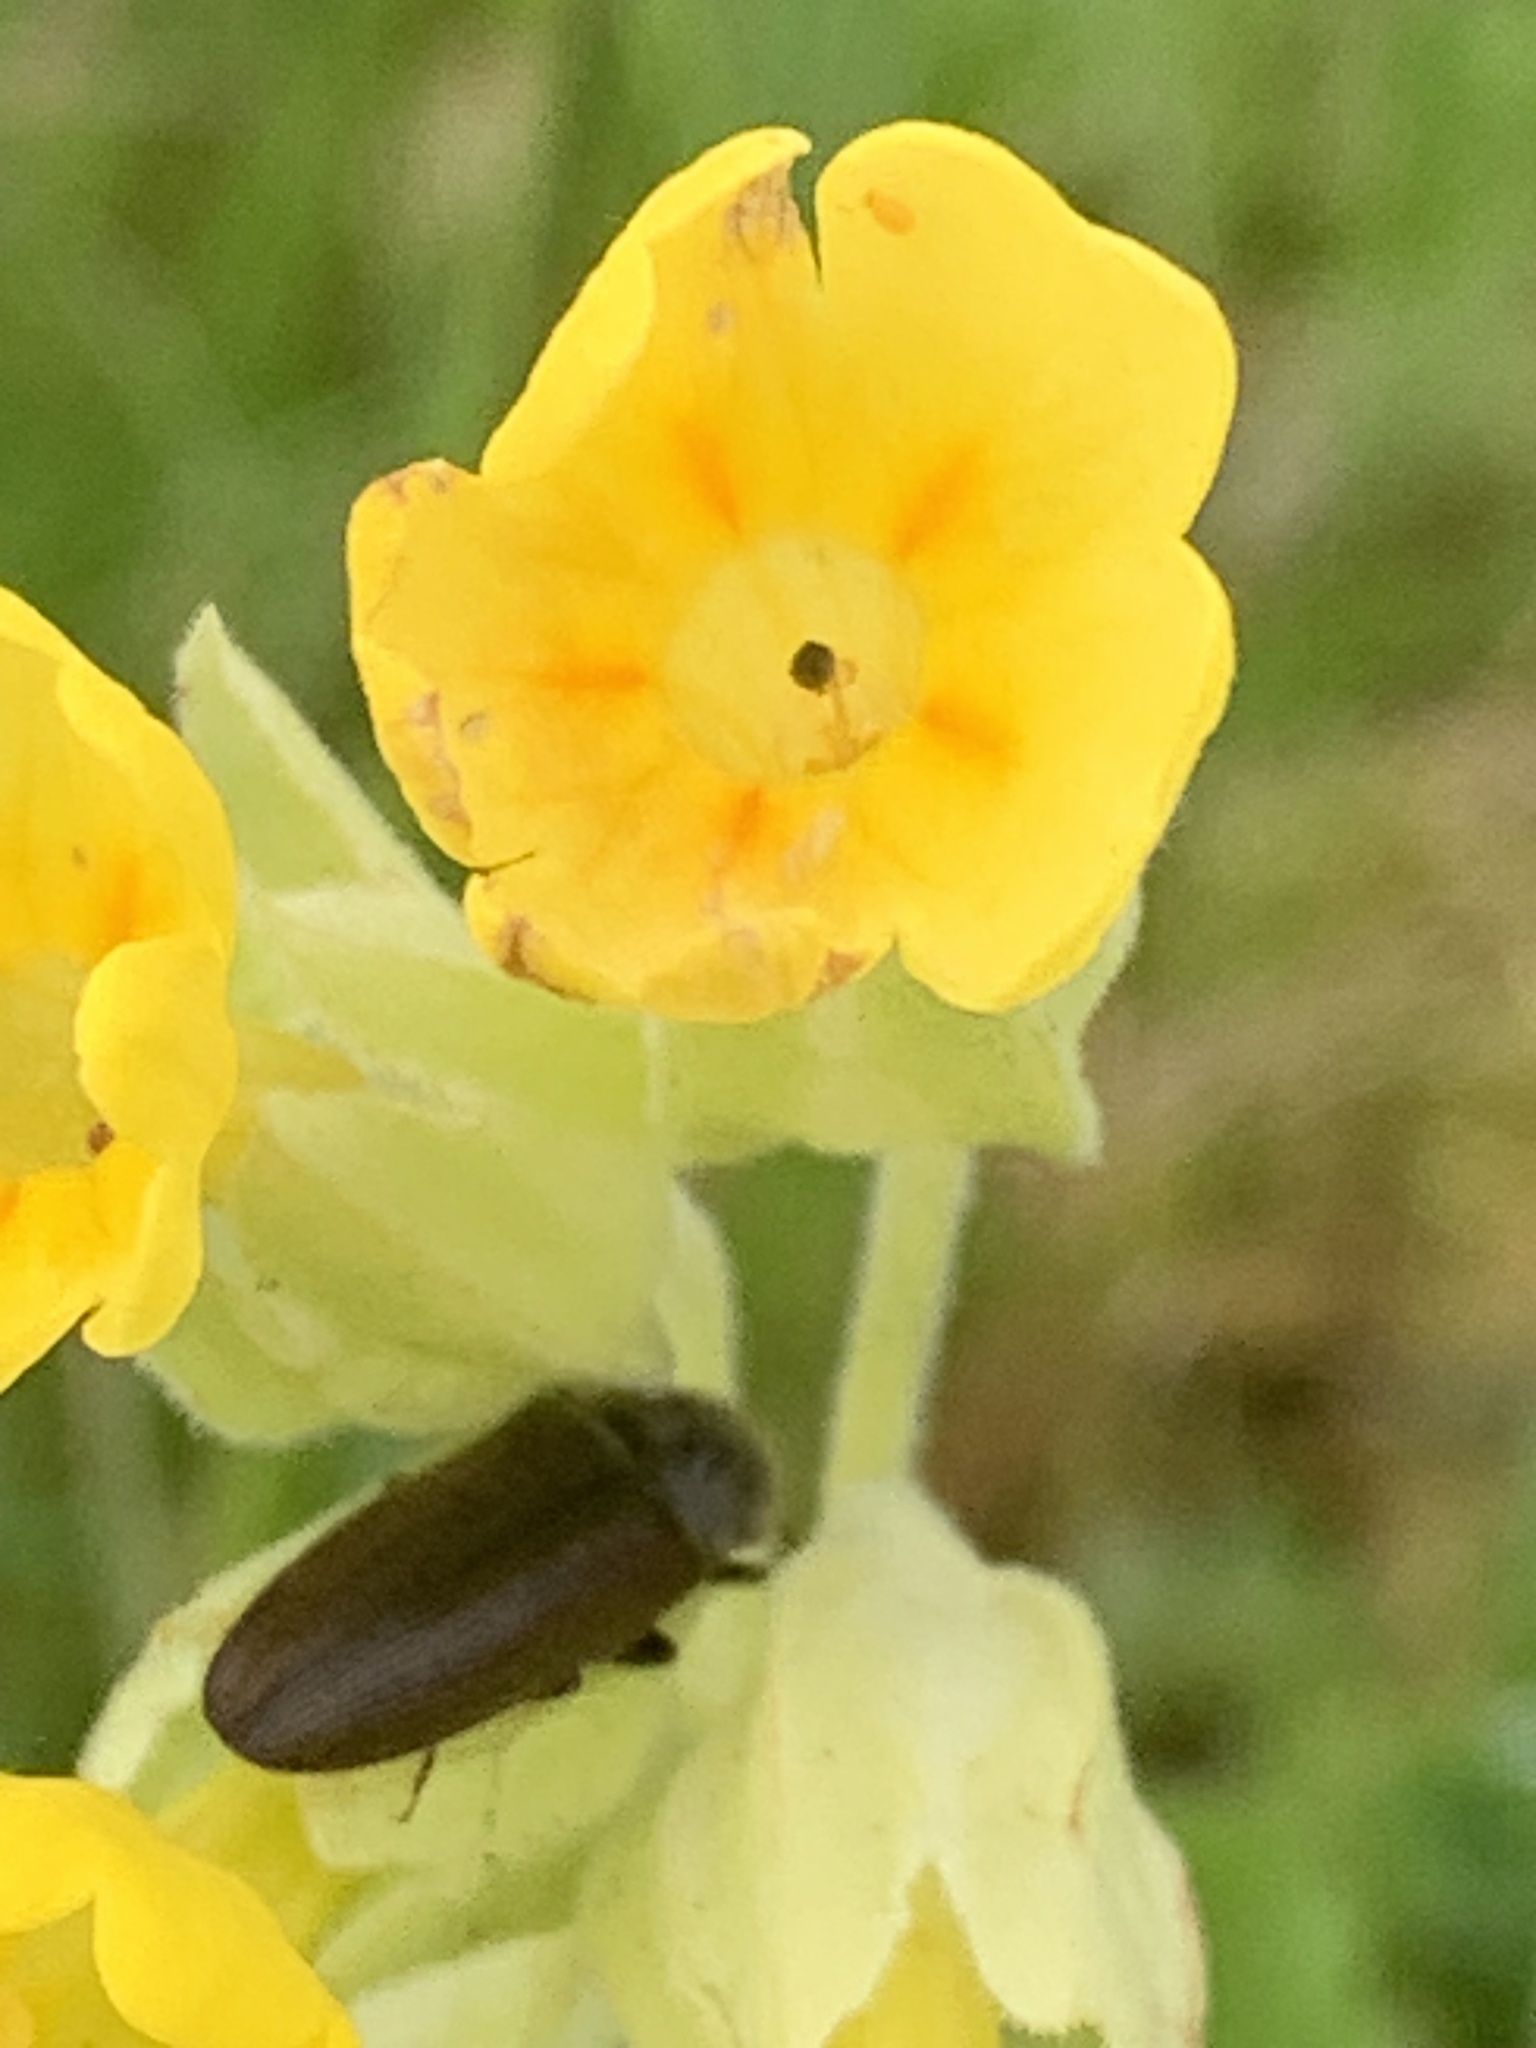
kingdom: Plantae
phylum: Tracheophyta
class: Magnoliopsida
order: Ericales
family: Primulaceae
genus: Primula
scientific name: Primula veris
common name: Cowslip
